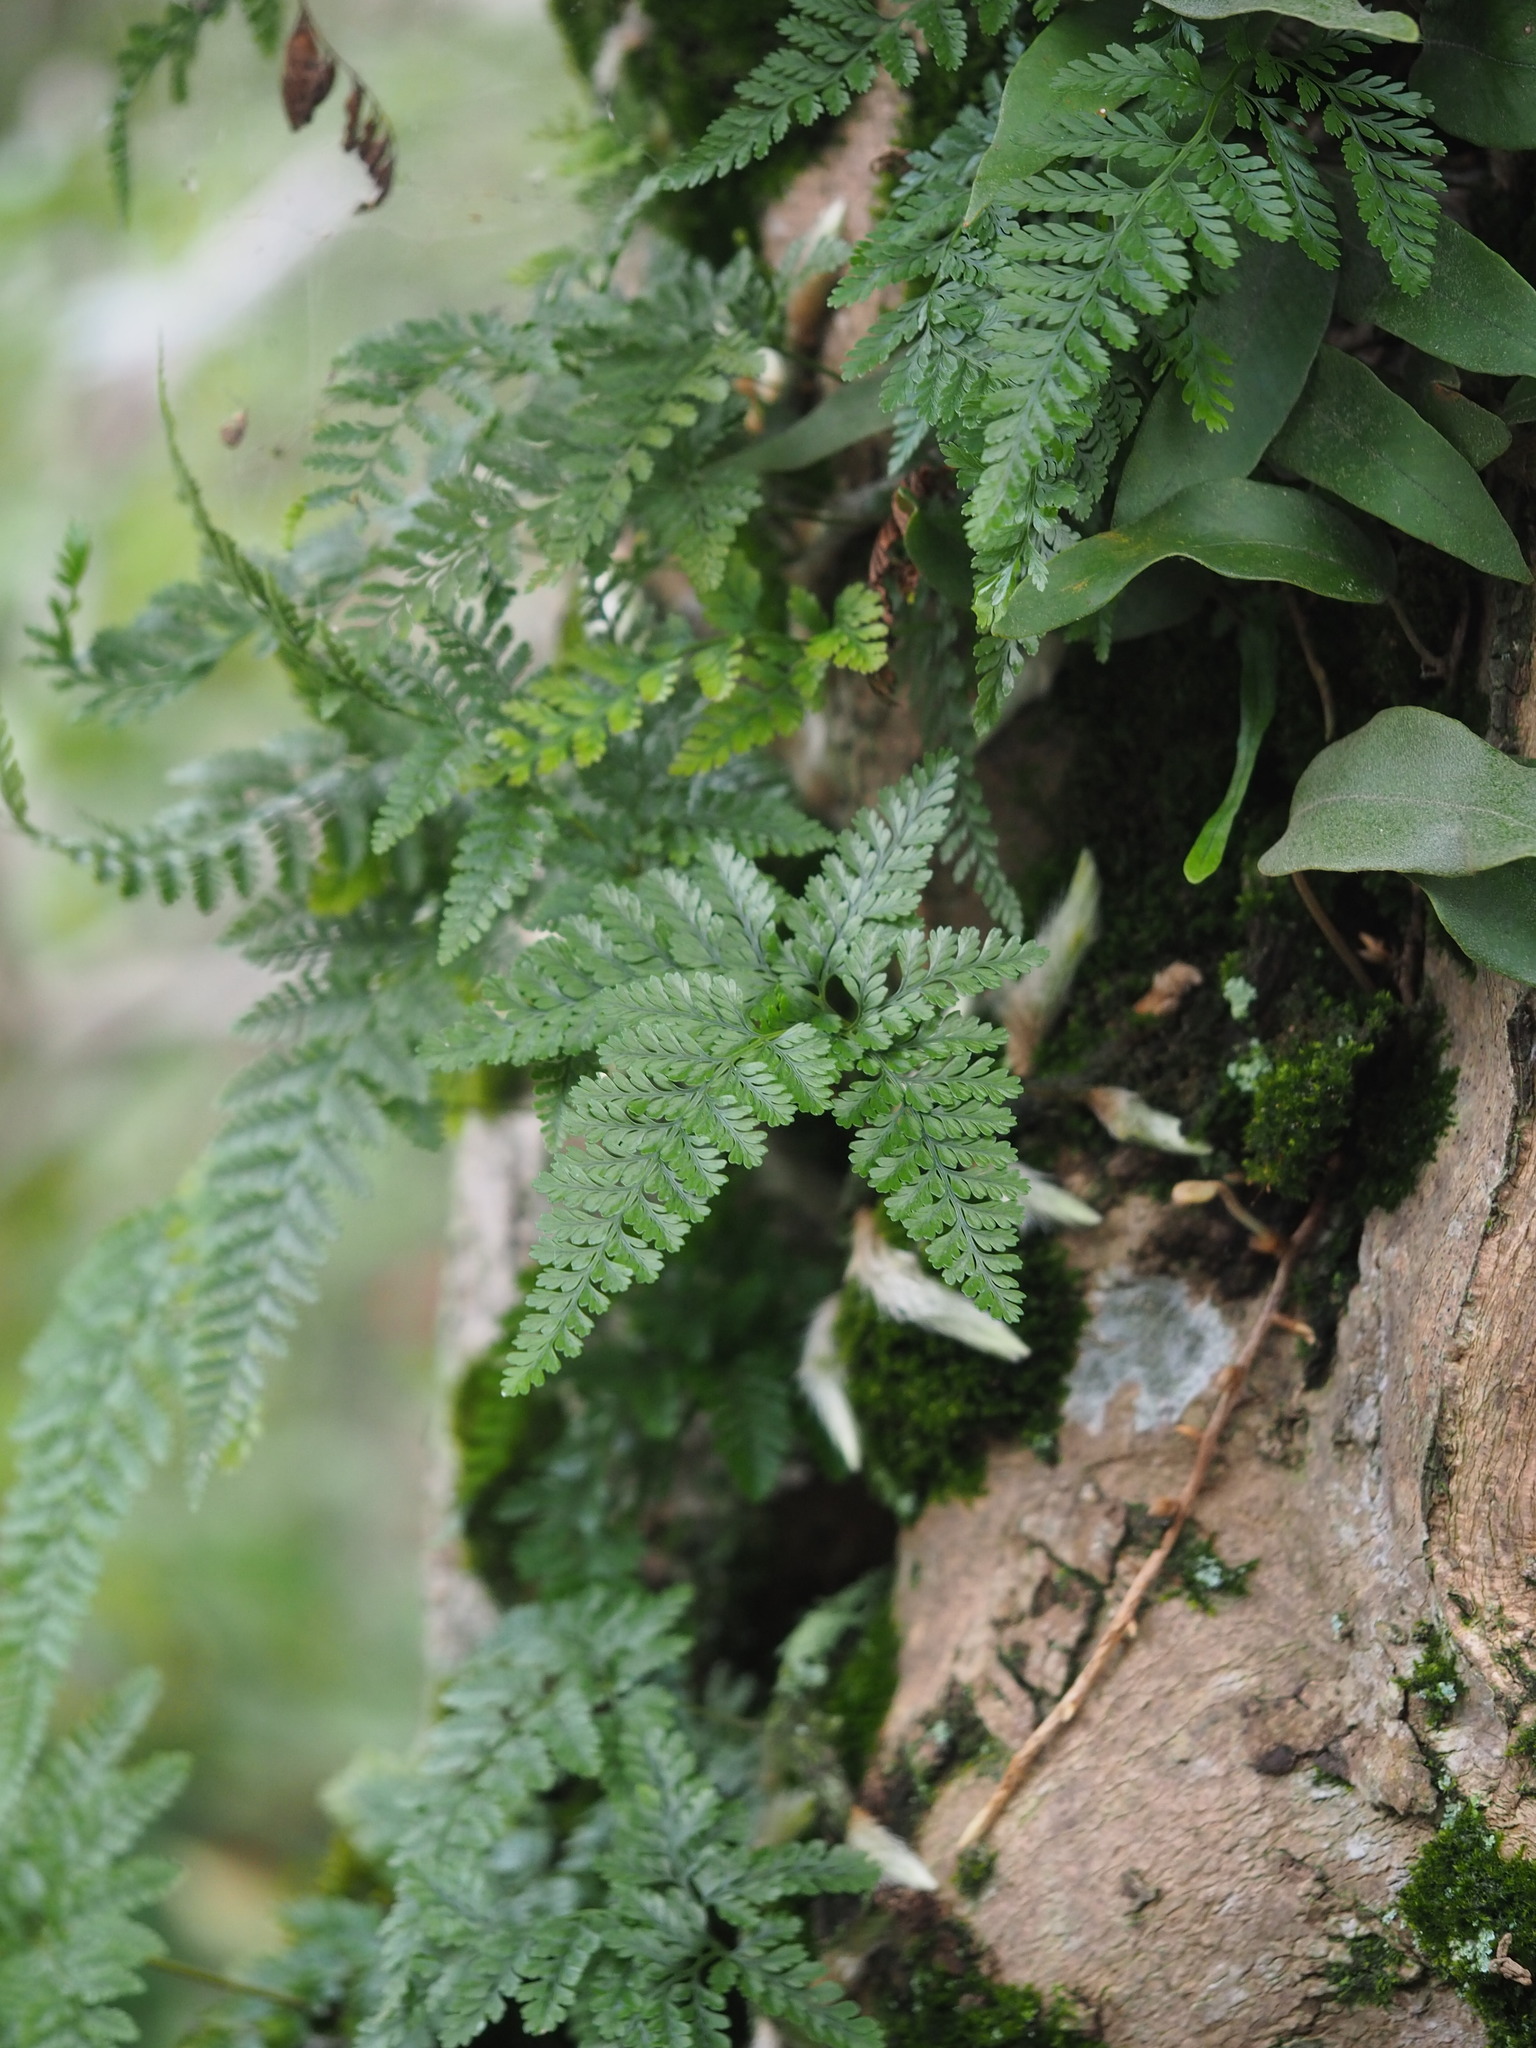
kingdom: Plantae
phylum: Tracheophyta
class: Polypodiopsida
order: Polypodiales
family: Davalliaceae
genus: Davallia
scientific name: Davallia griffithiana
